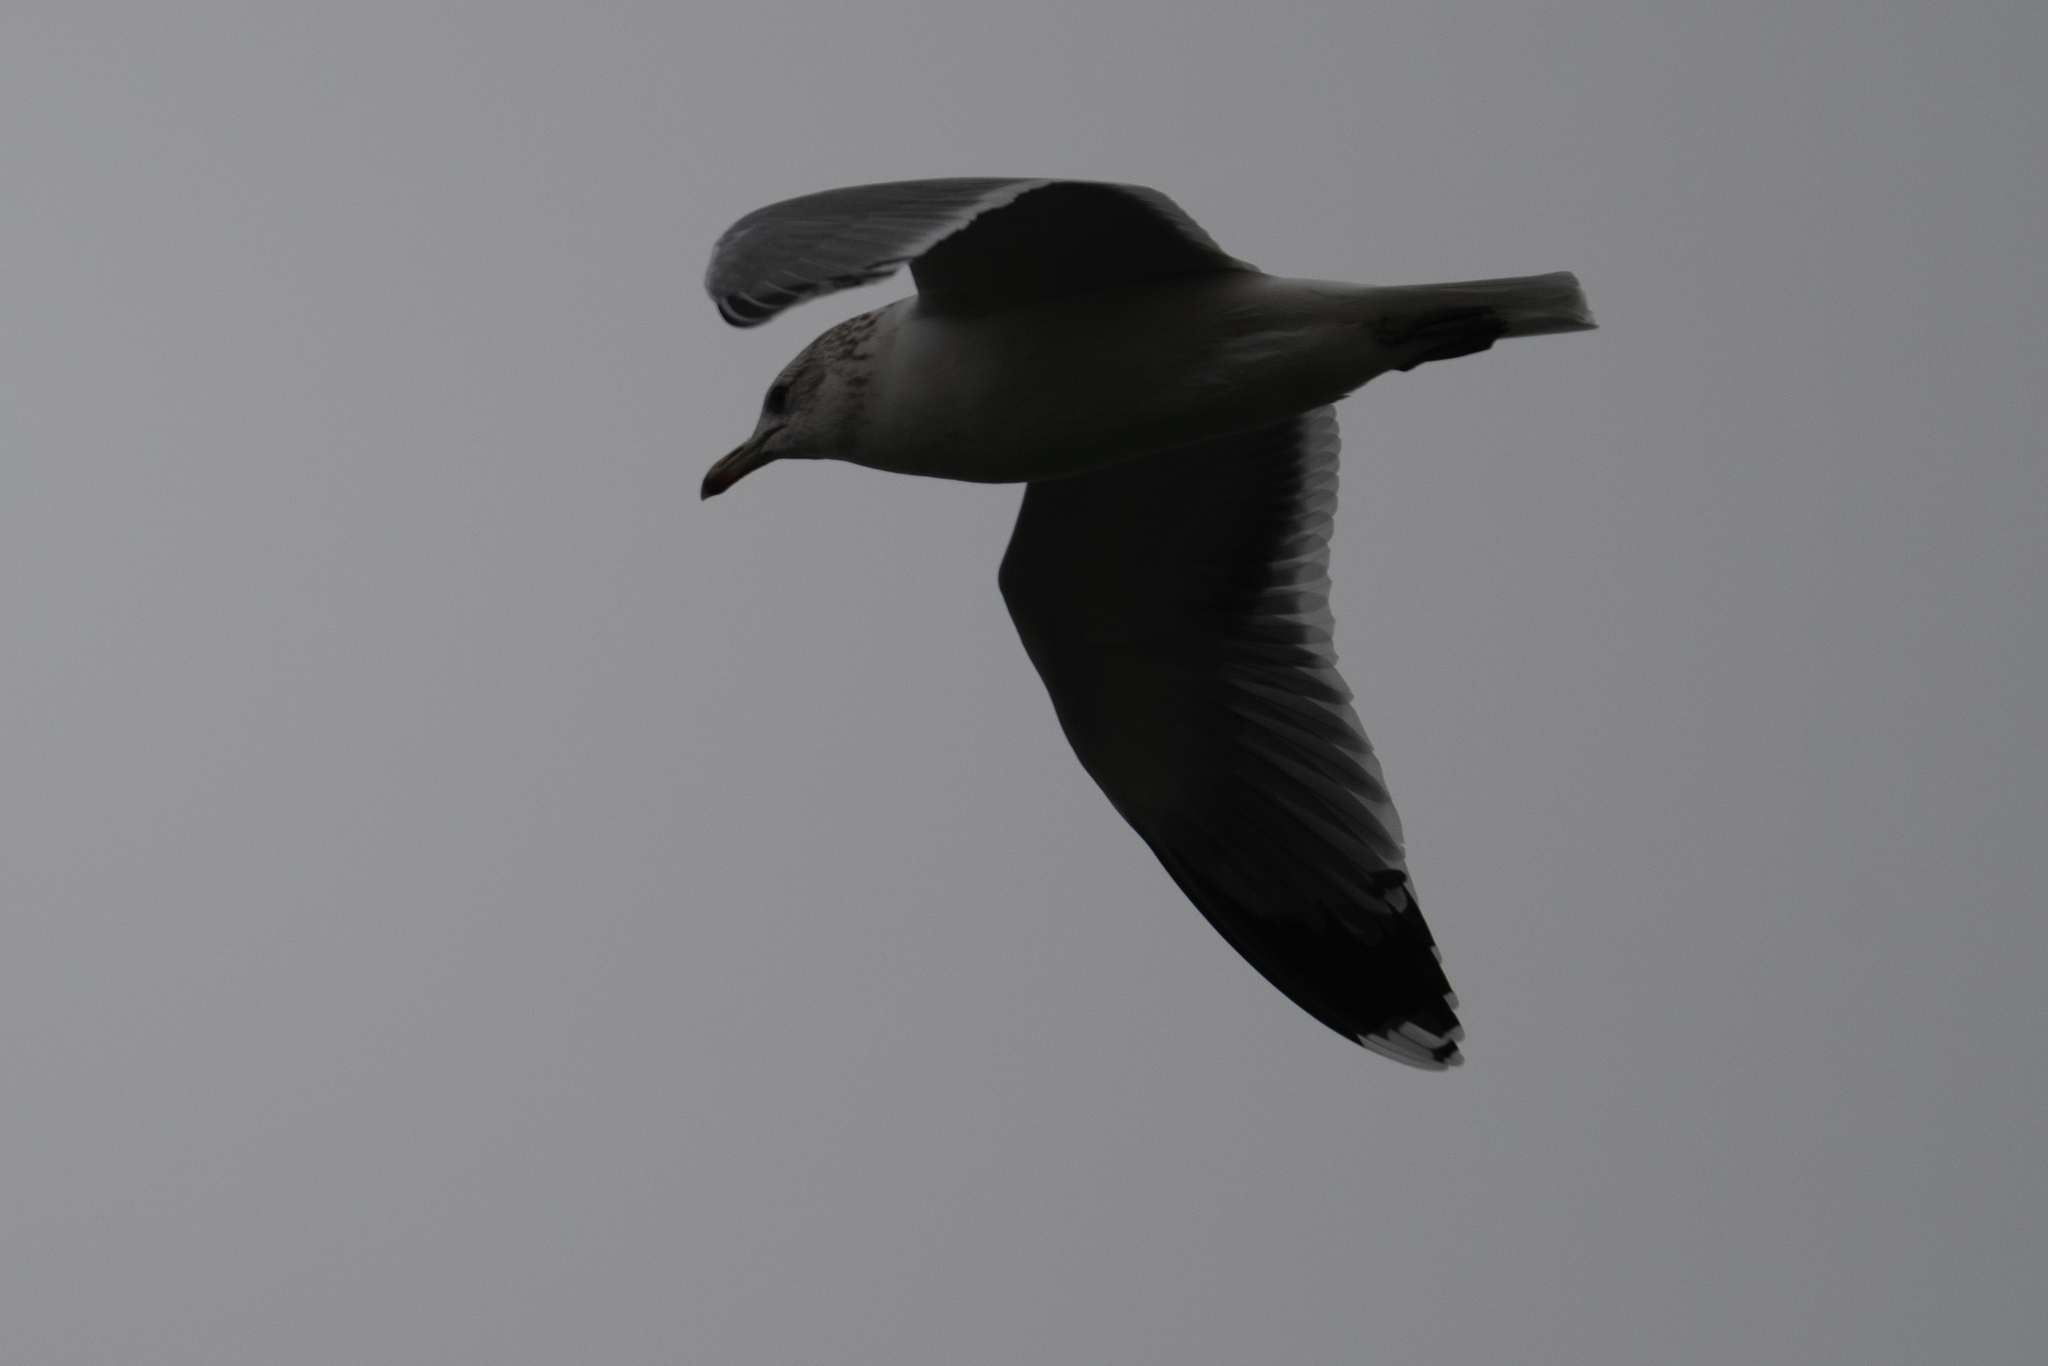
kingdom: Animalia
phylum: Chordata
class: Aves
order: Charadriiformes
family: Laridae
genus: Larus
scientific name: Larus californicus
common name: California gull
